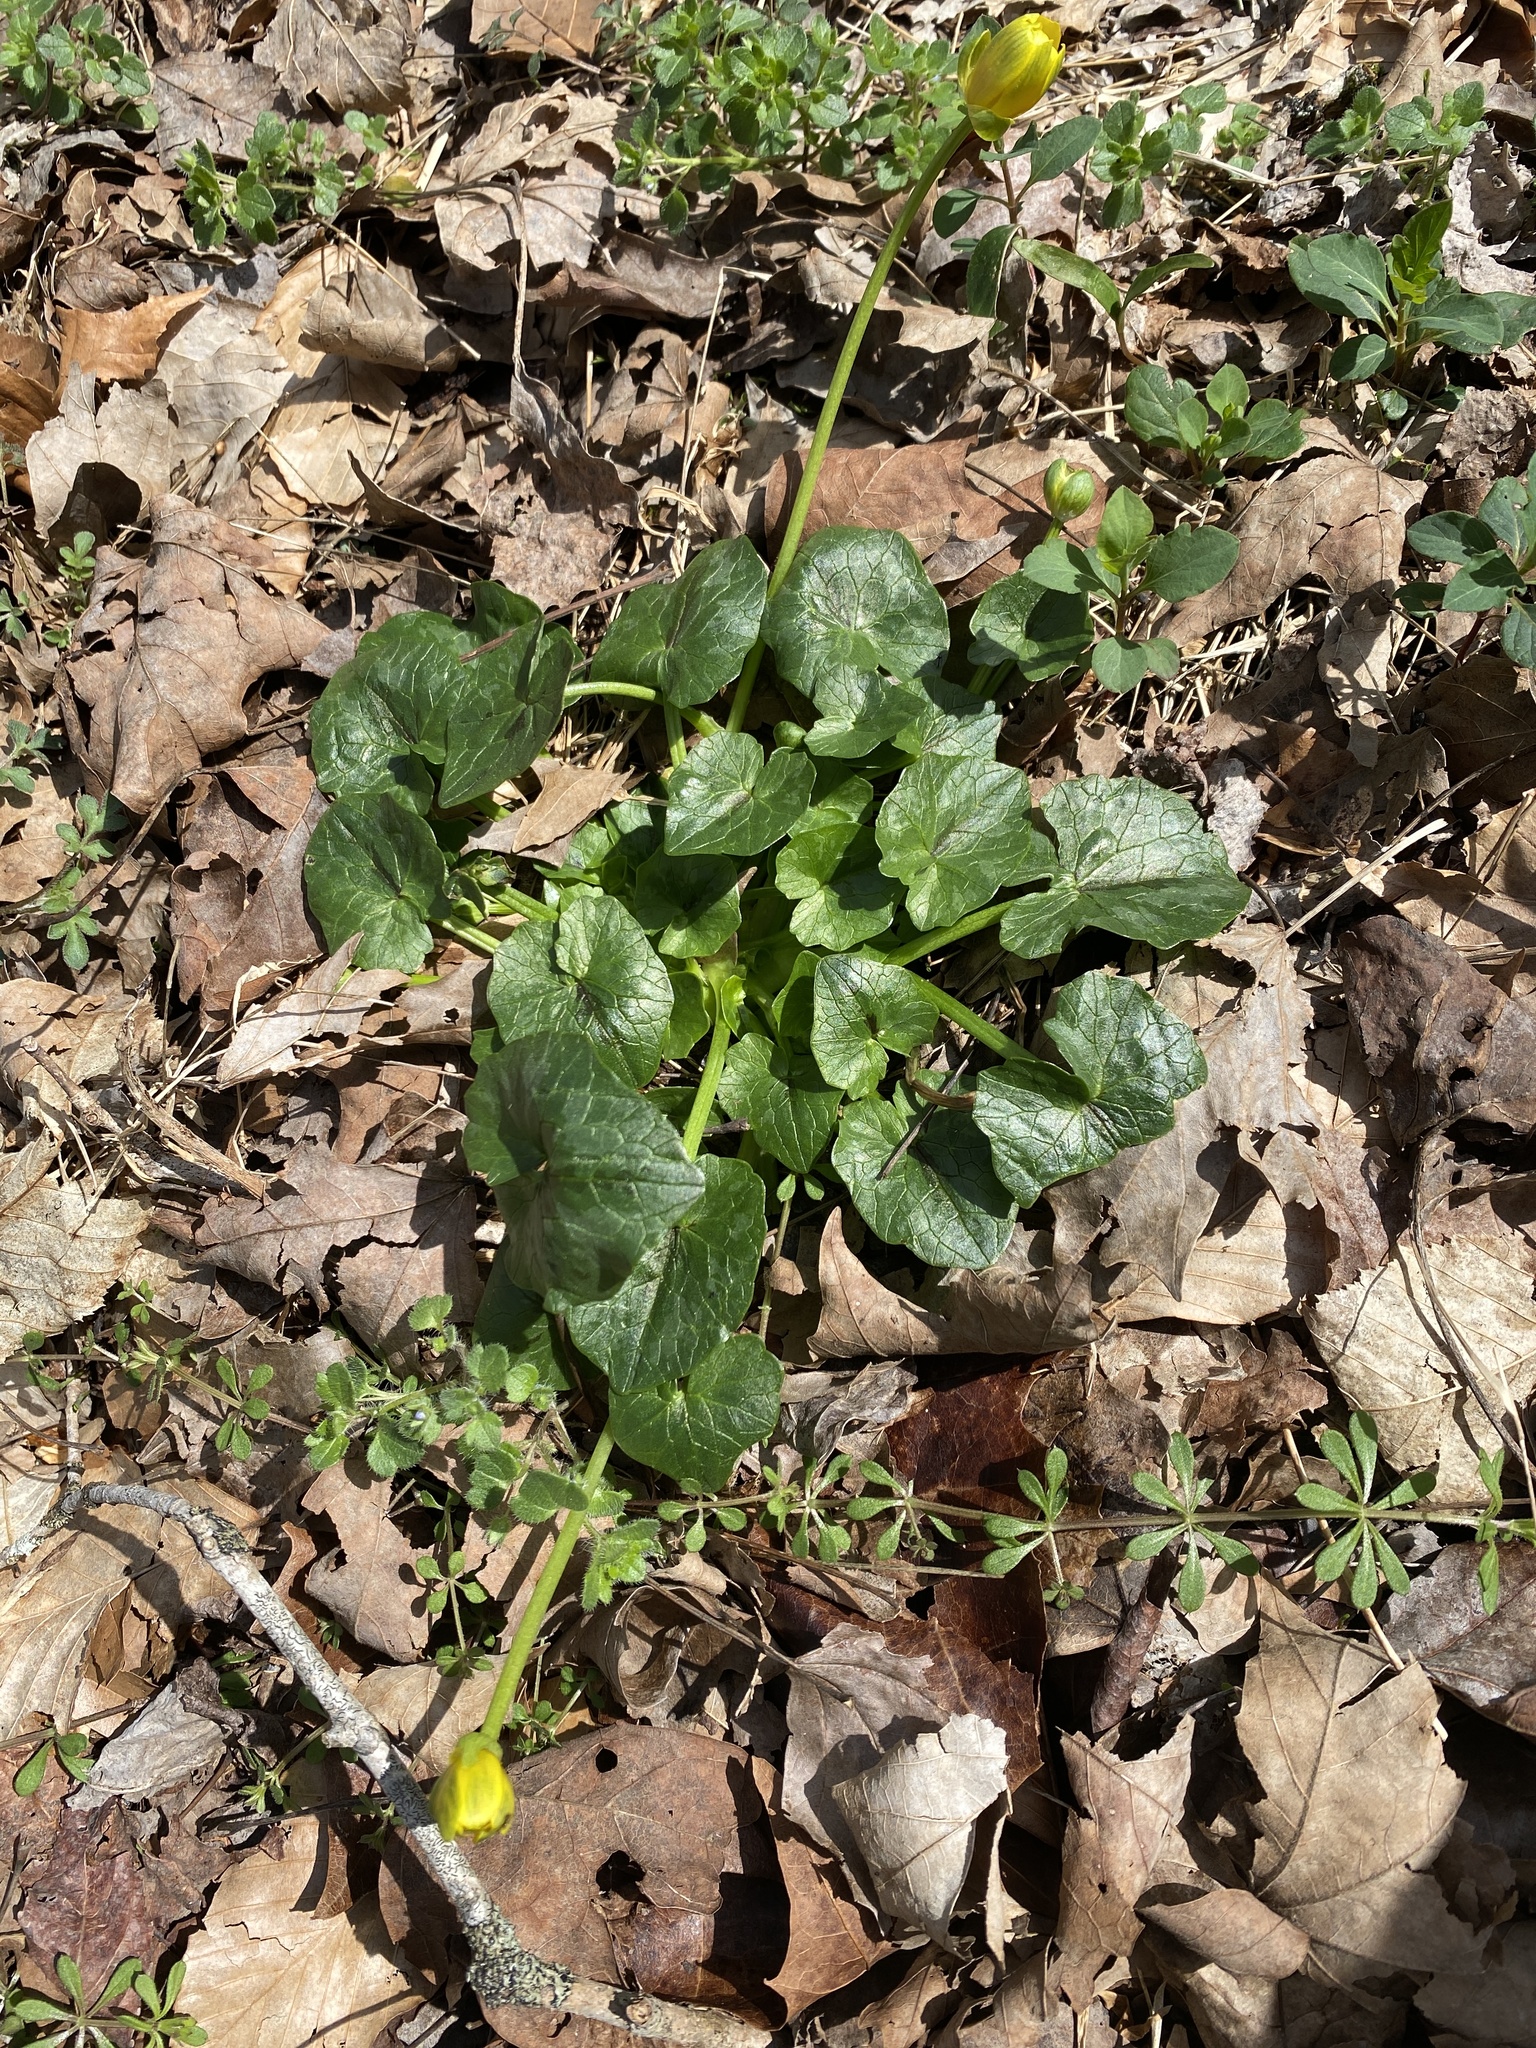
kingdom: Plantae
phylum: Tracheophyta
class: Magnoliopsida
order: Ranunculales
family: Ranunculaceae
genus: Ficaria
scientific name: Ficaria verna
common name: Lesser celandine
